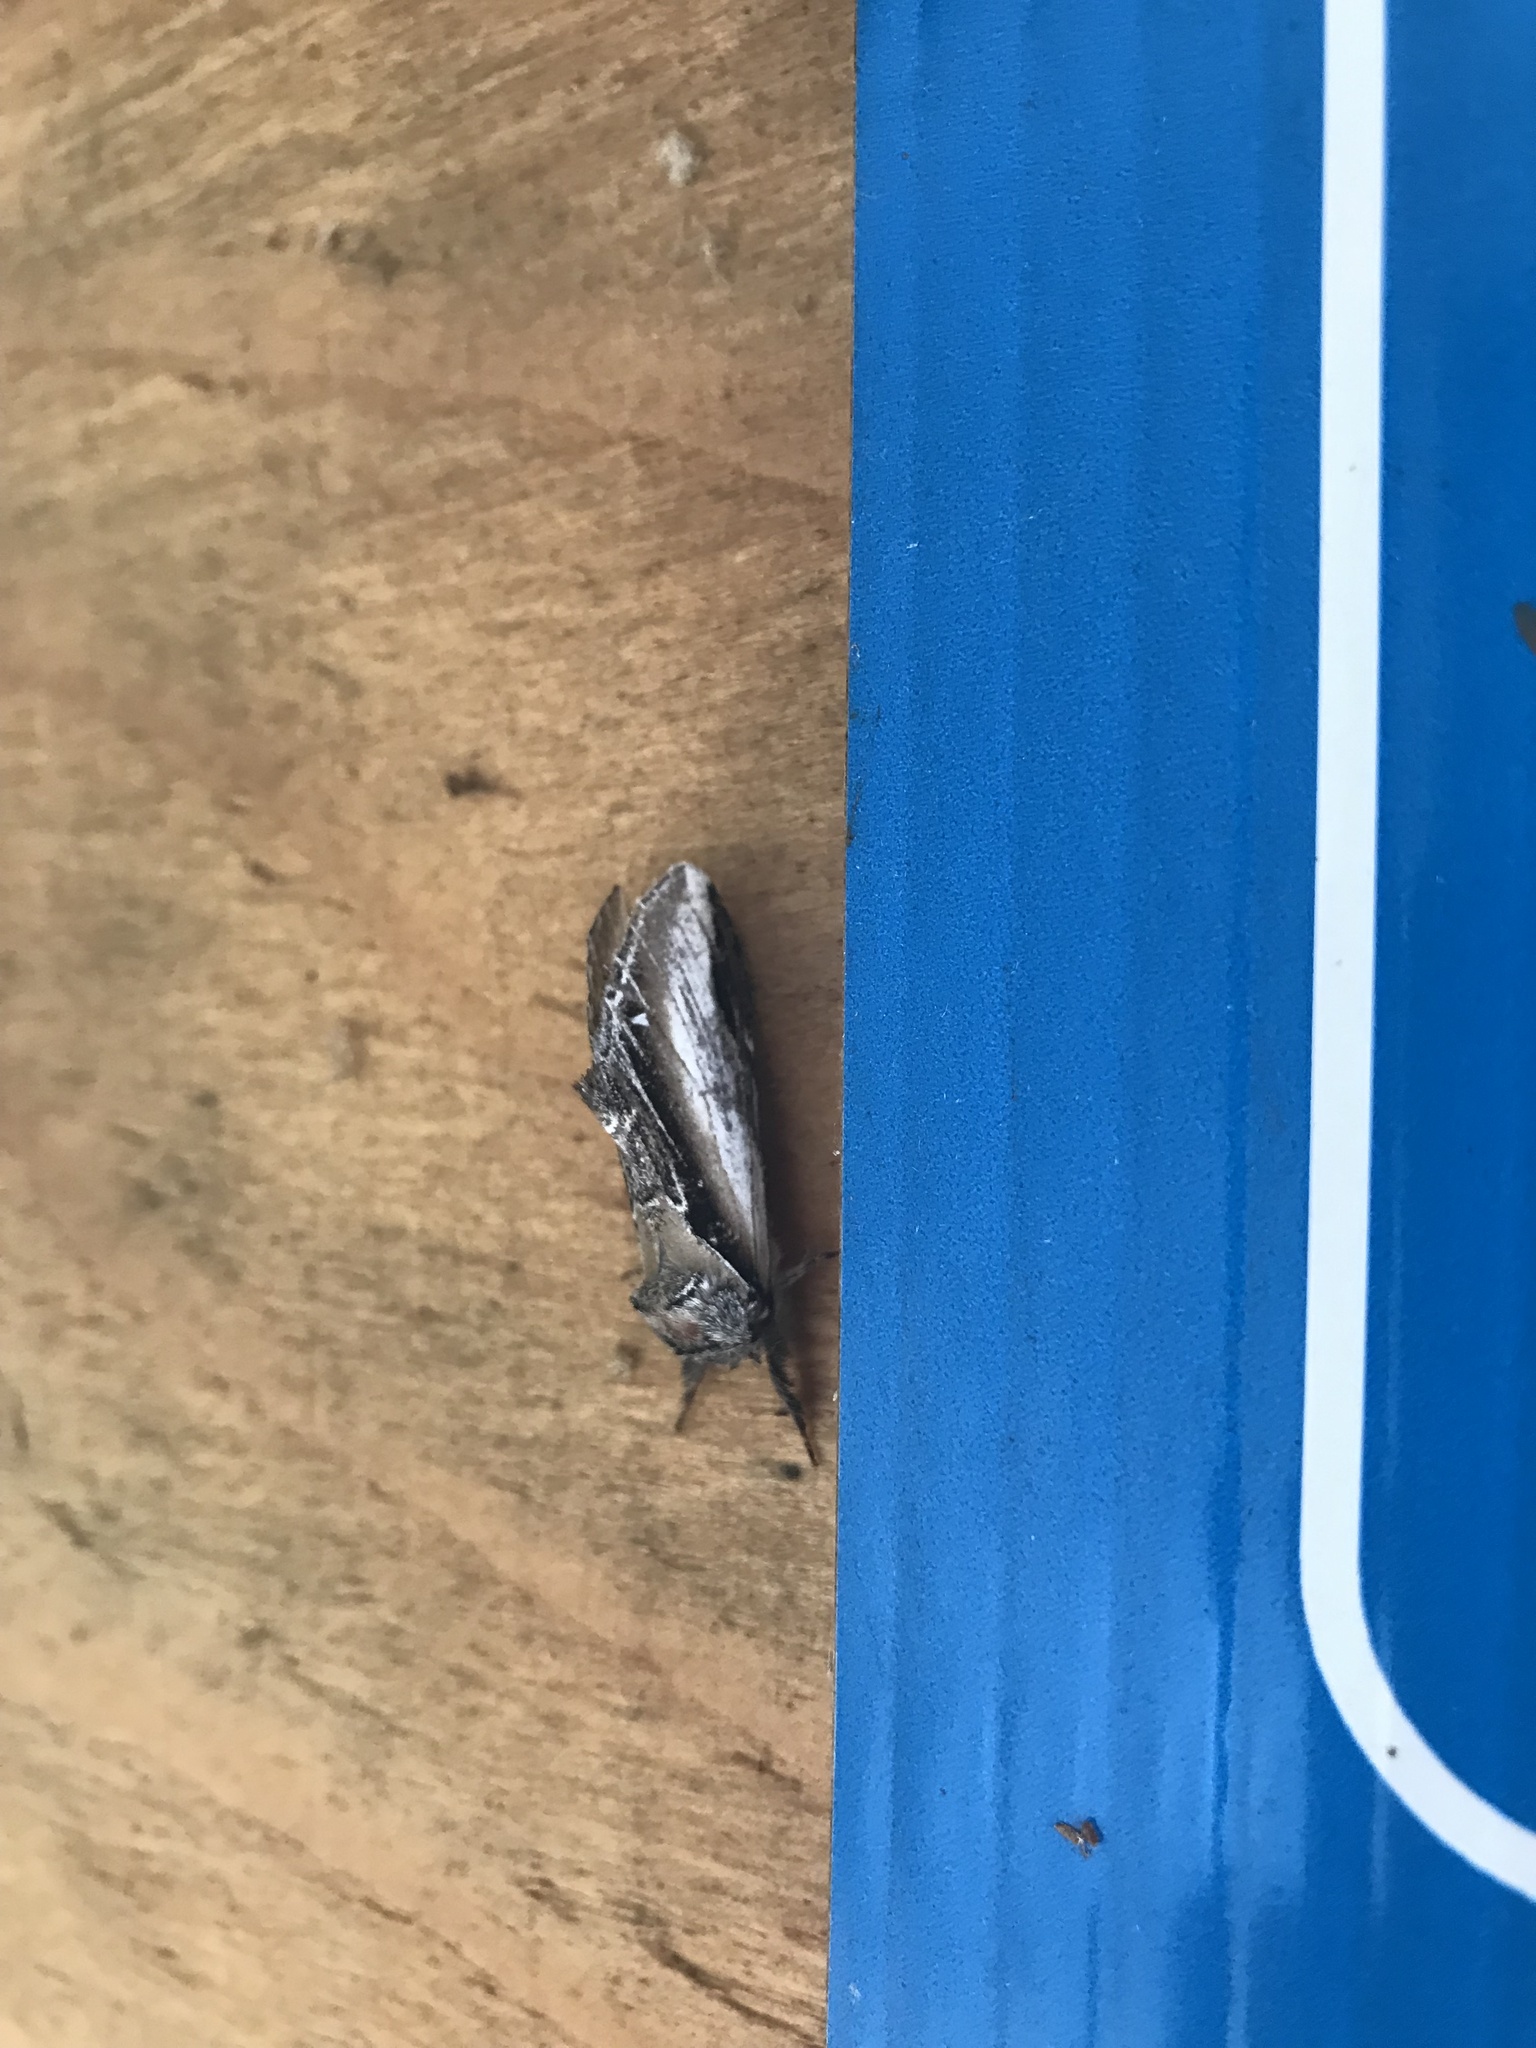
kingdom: Animalia
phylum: Arthropoda
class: Insecta
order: Lepidoptera
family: Notodontidae
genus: Pheosia
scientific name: Pheosia rimosa
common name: Black-rimmed prominent
